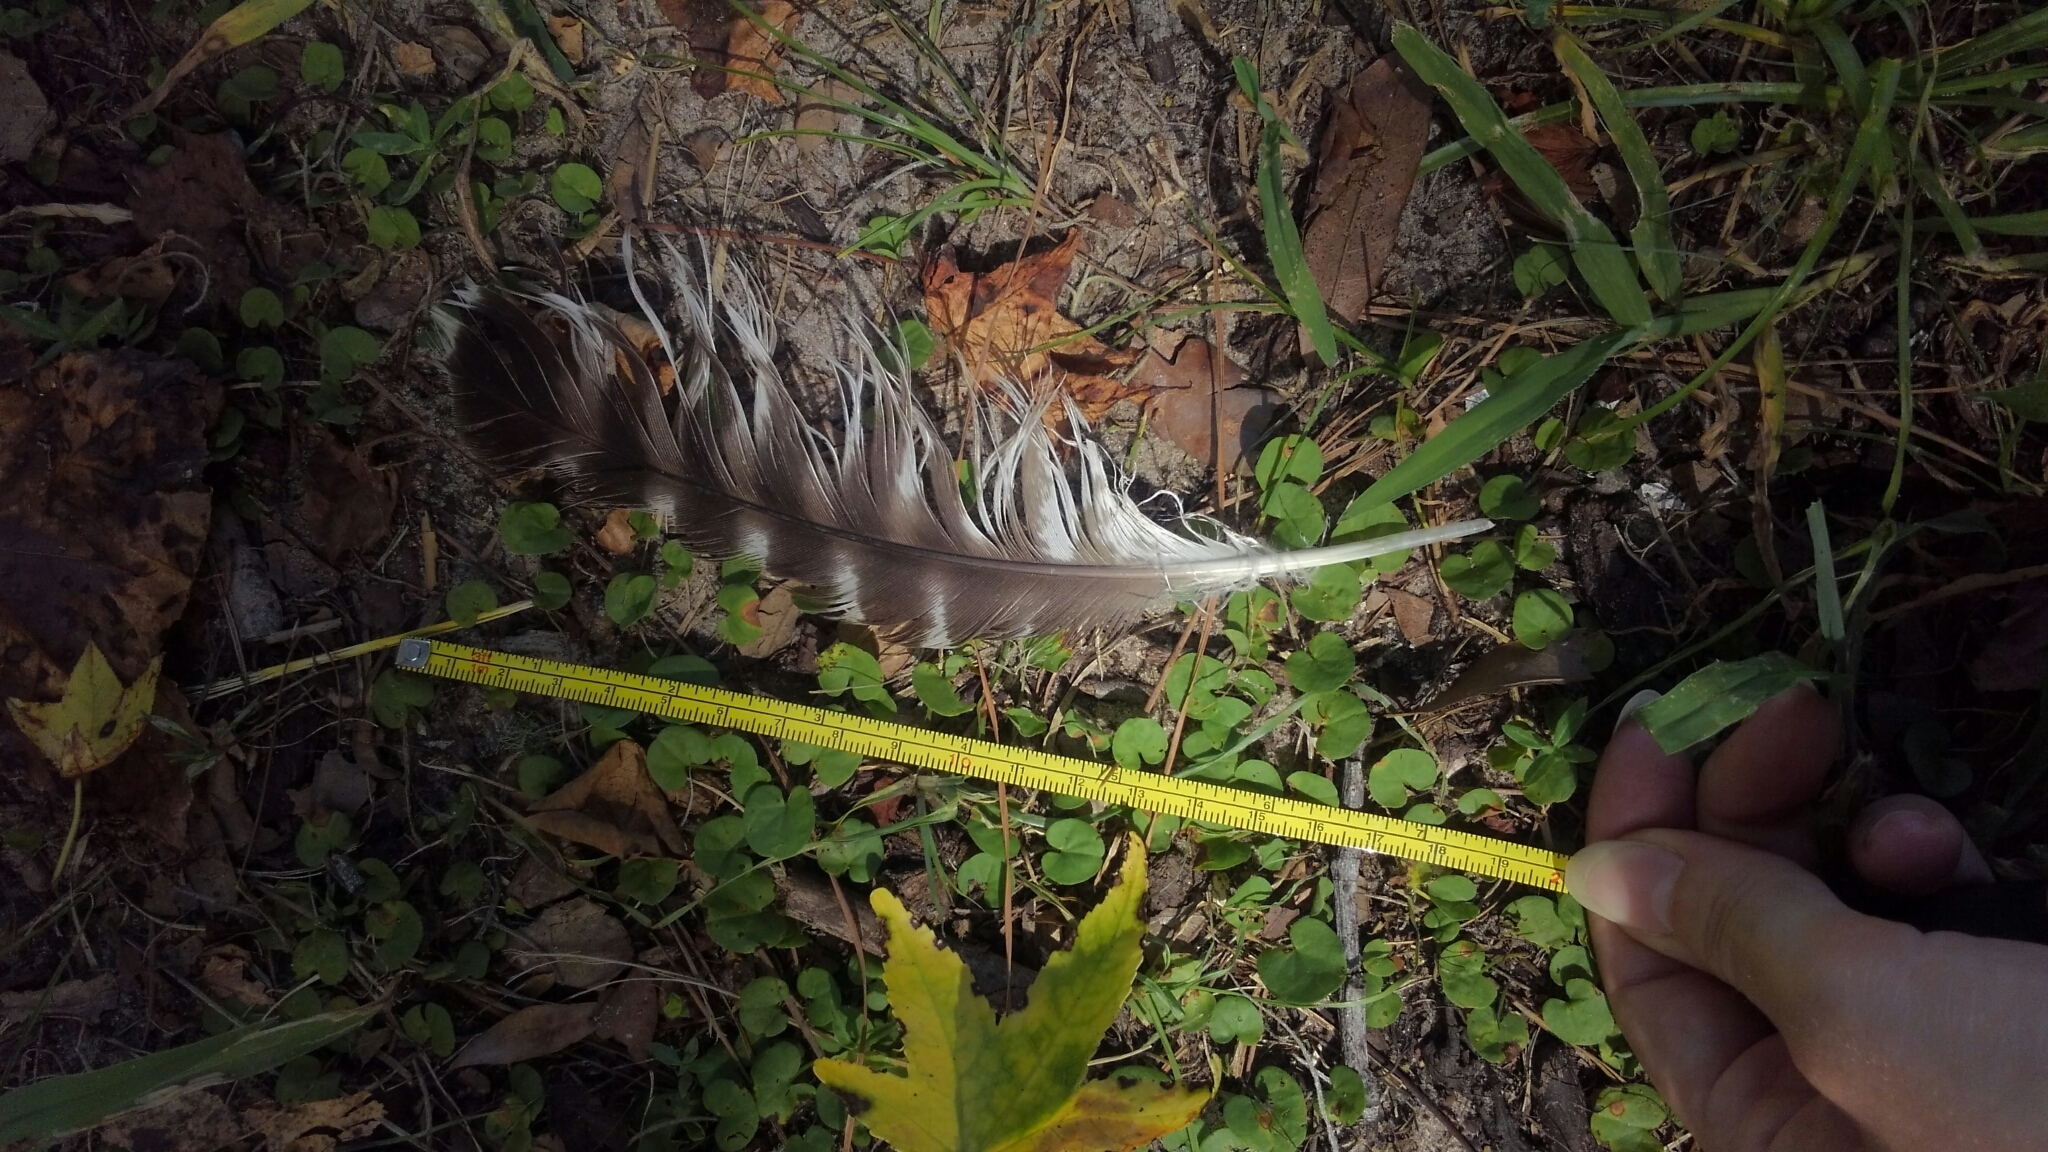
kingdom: Animalia
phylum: Chordata
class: Aves
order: Accipitriformes
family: Accipitridae
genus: Buteo
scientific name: Buteo lineatus
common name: Red-shouldered hawk
